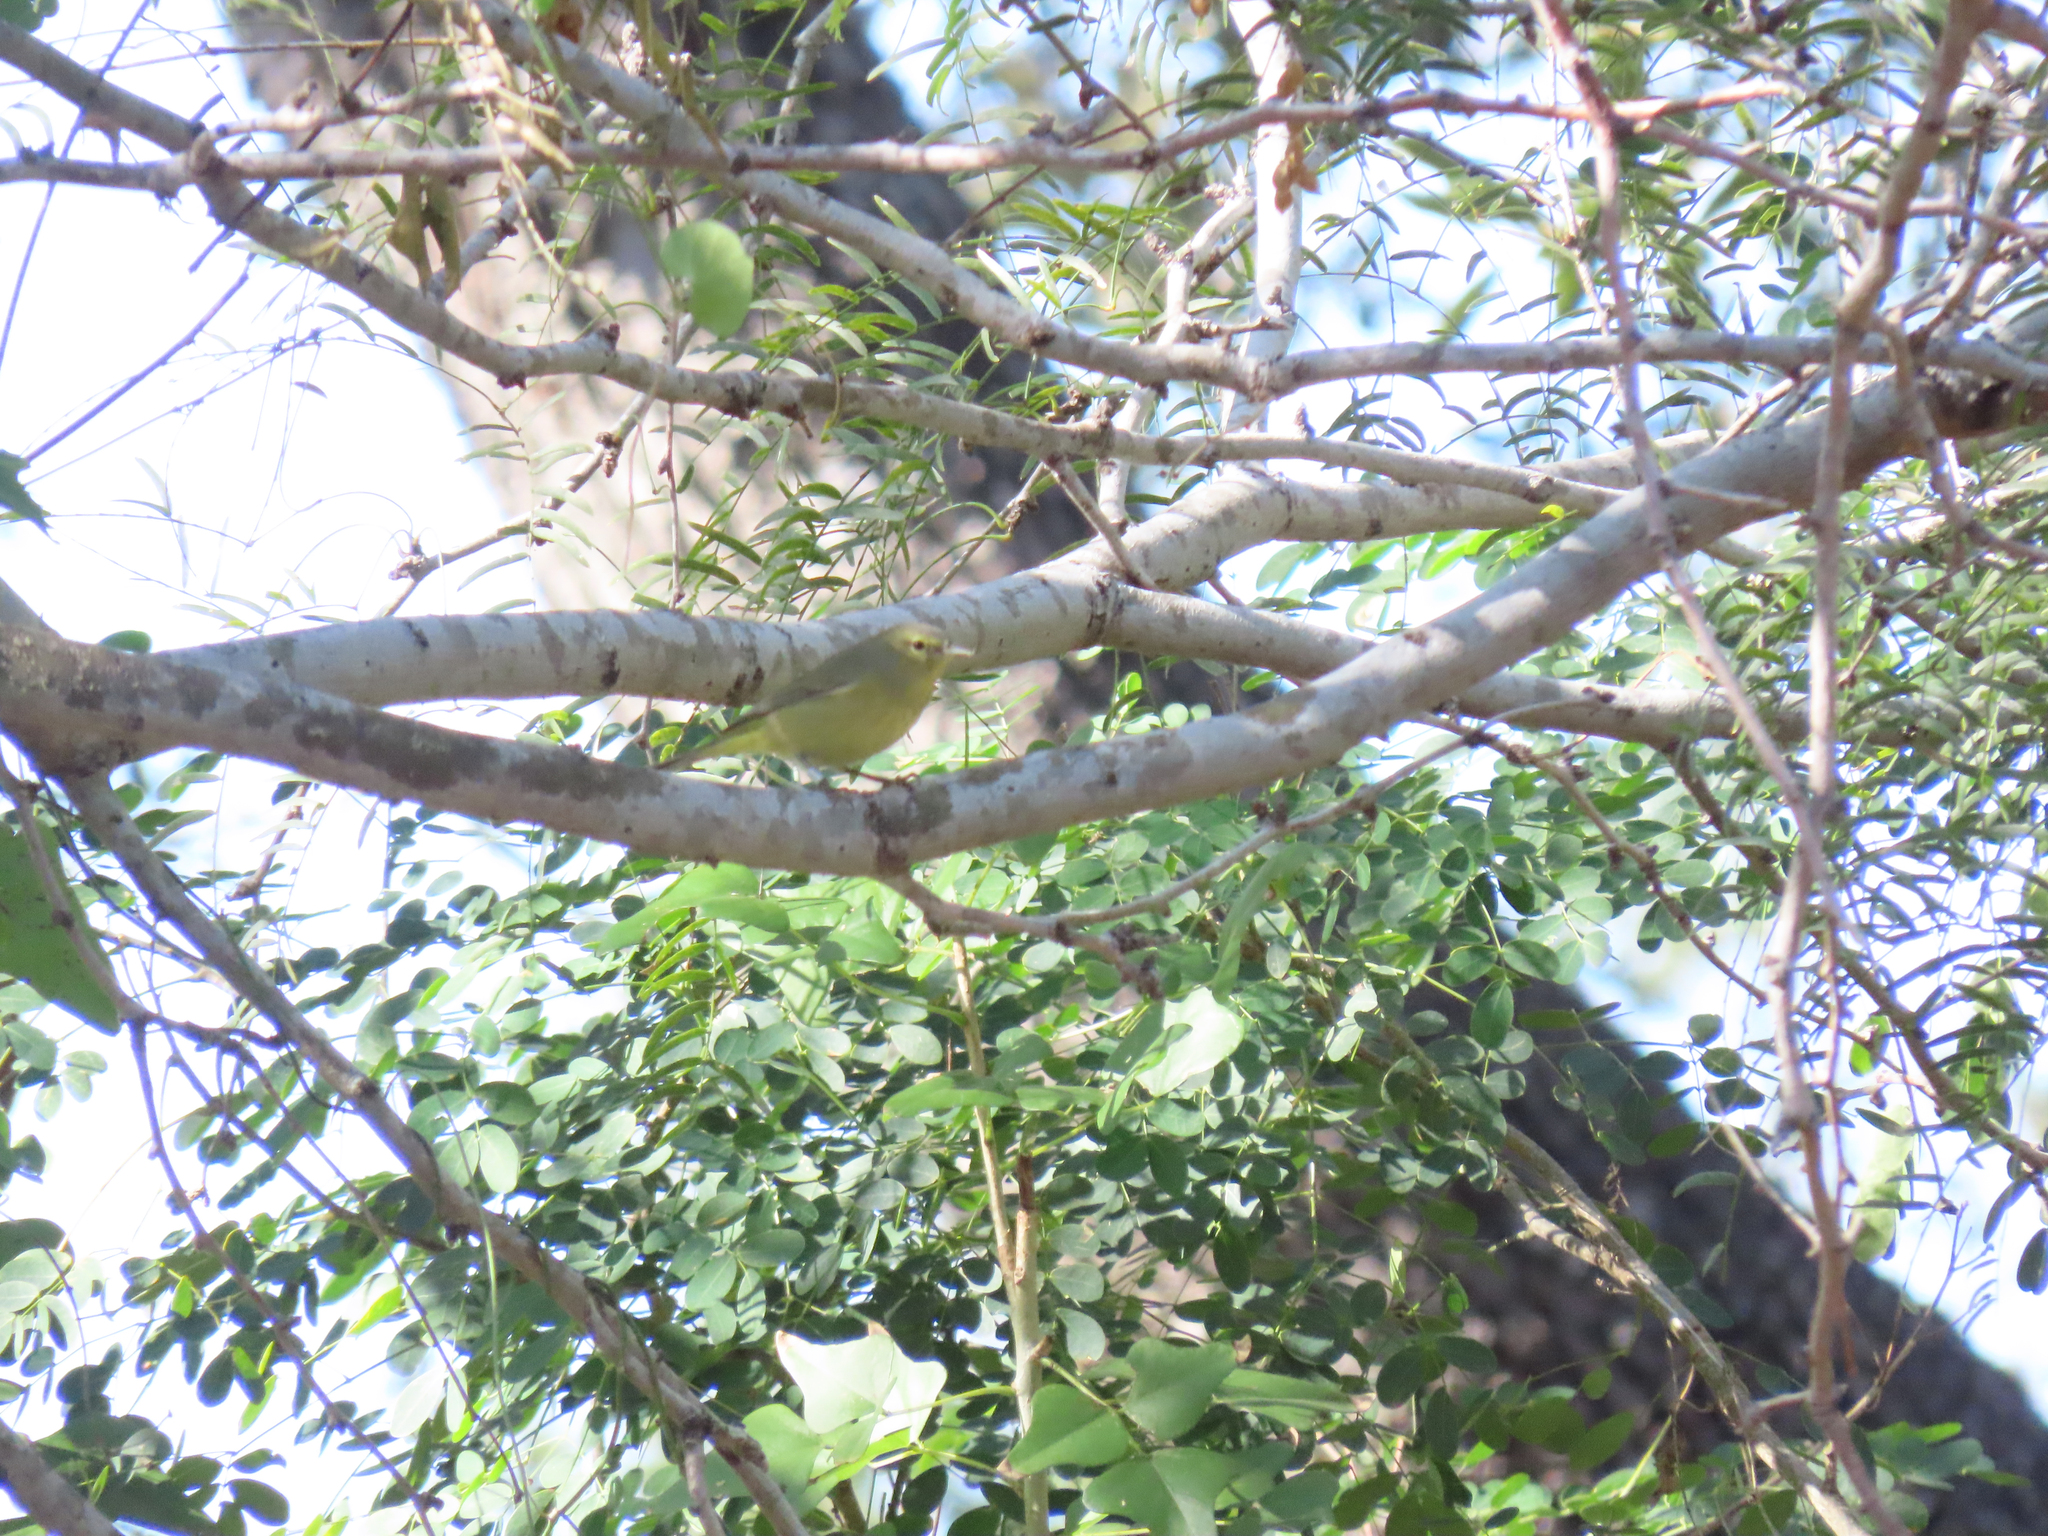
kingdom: Animalia
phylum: Chordata
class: Aves
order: Passeriformes
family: Parulidae
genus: Leiothlypis
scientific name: Leiothlypis celata
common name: Orange-crowned warbler
